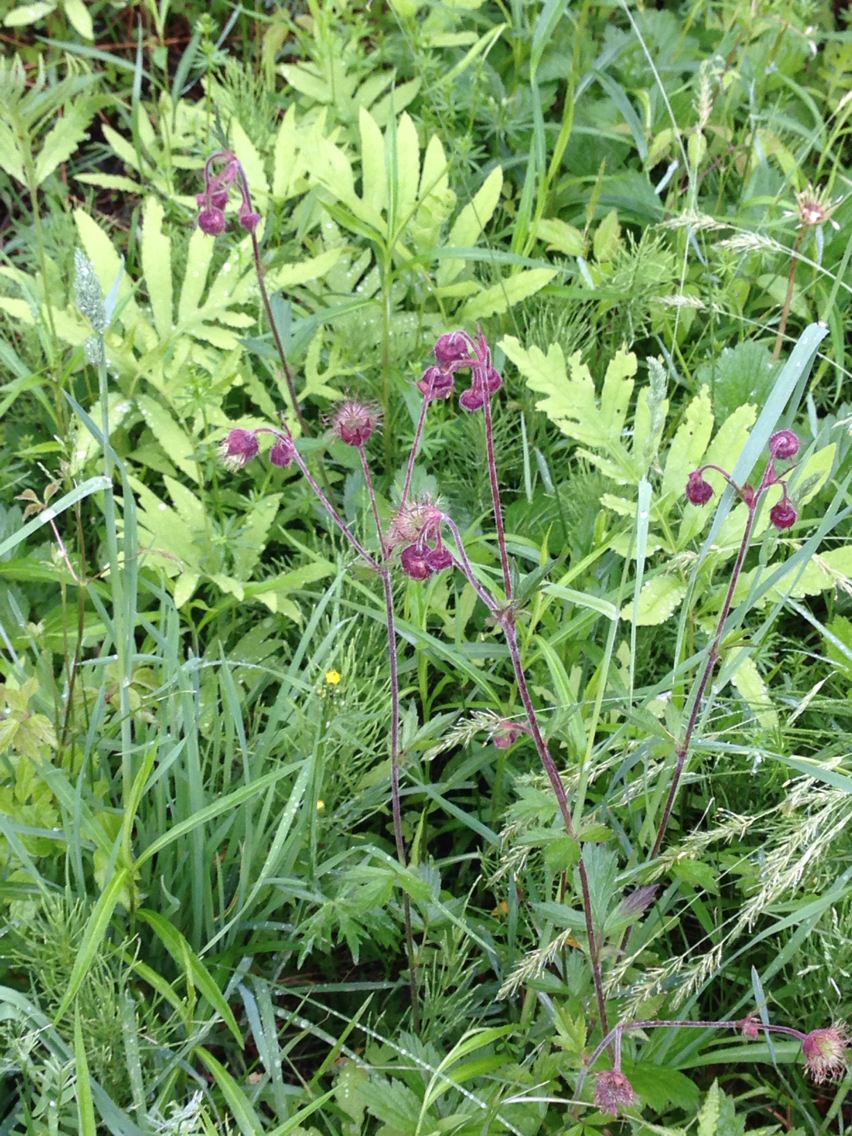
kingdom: Plantae
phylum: Tracheophyta
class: Magnoliopsida
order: Rosales
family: Rosaceae
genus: Geum
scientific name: Geum rivale
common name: Water avens
